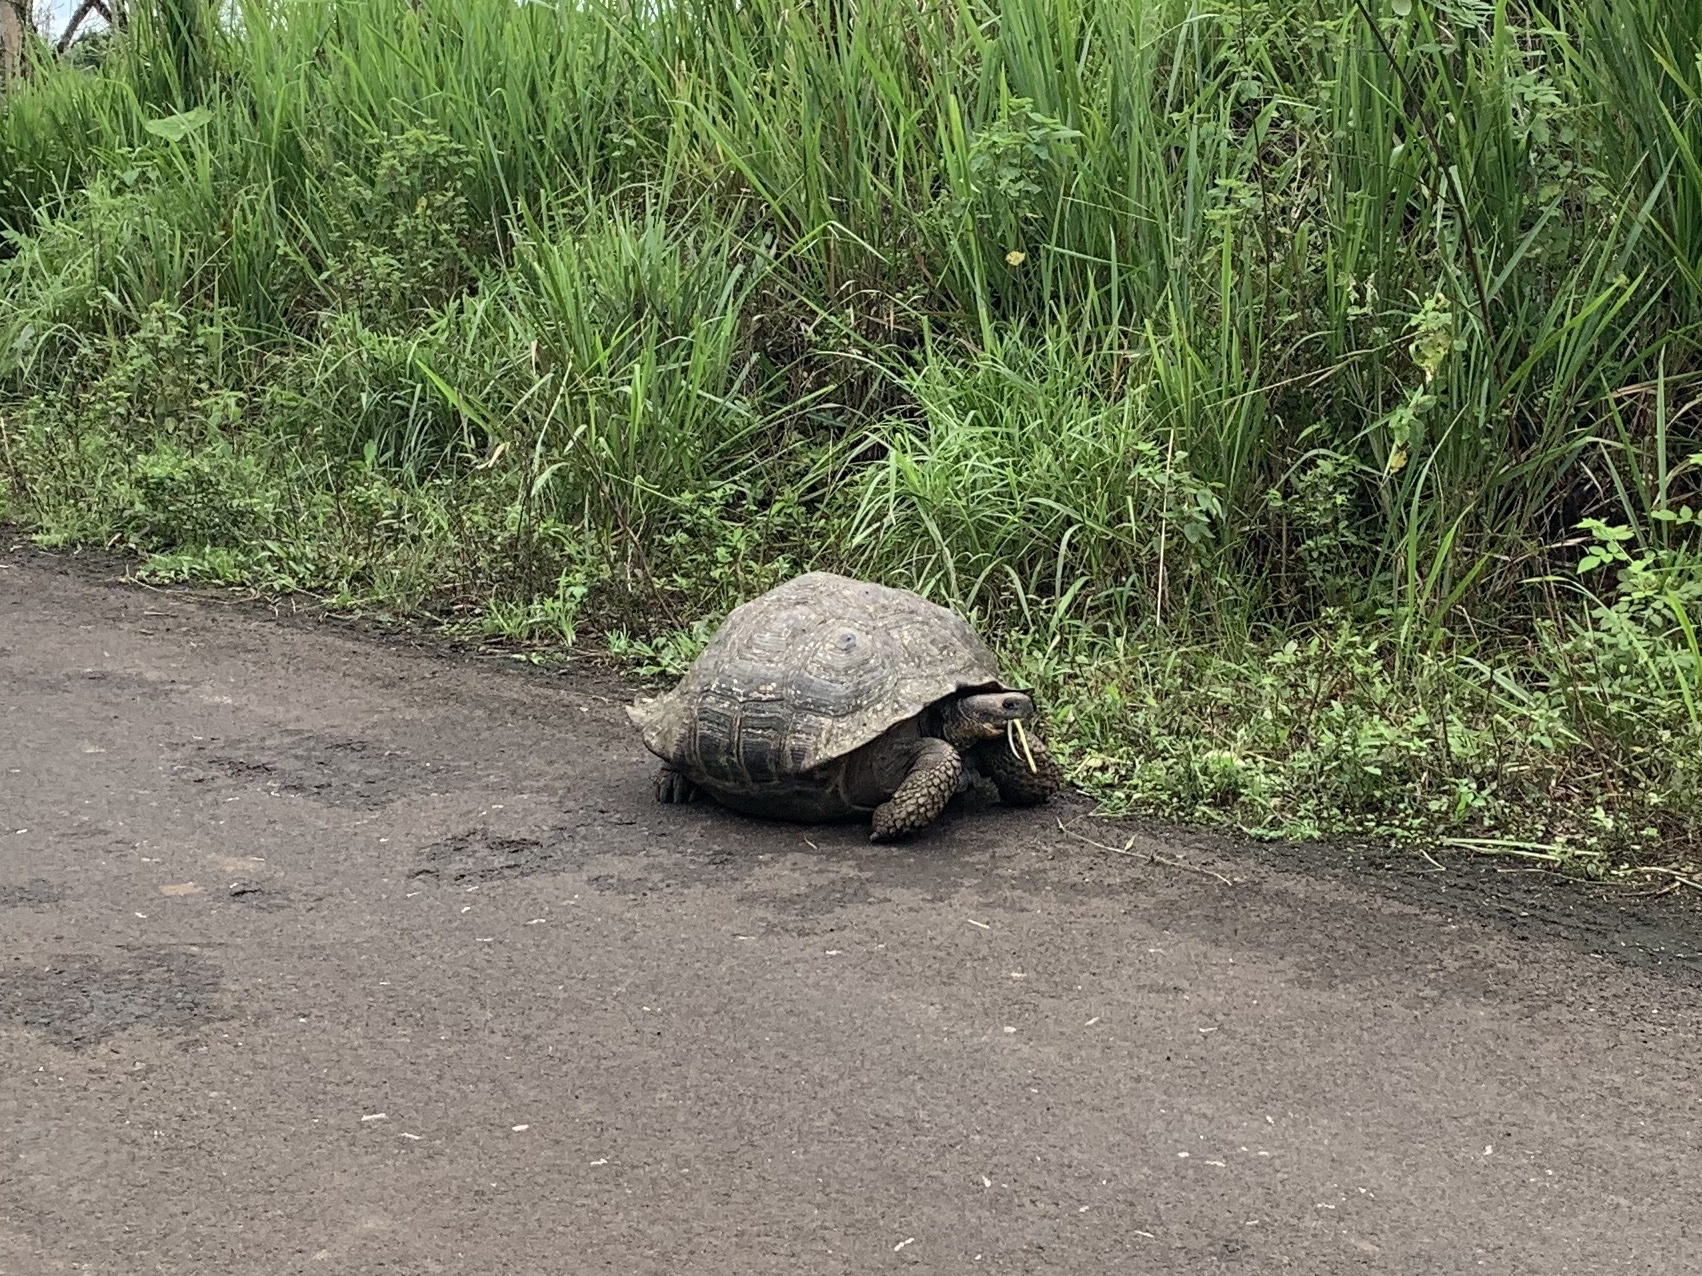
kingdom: Animalia
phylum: Chordata
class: Testudines
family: Testudinidae
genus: Chelonoidis
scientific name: Chelonoidis porteri
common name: Indefatigable island giant tortoise
